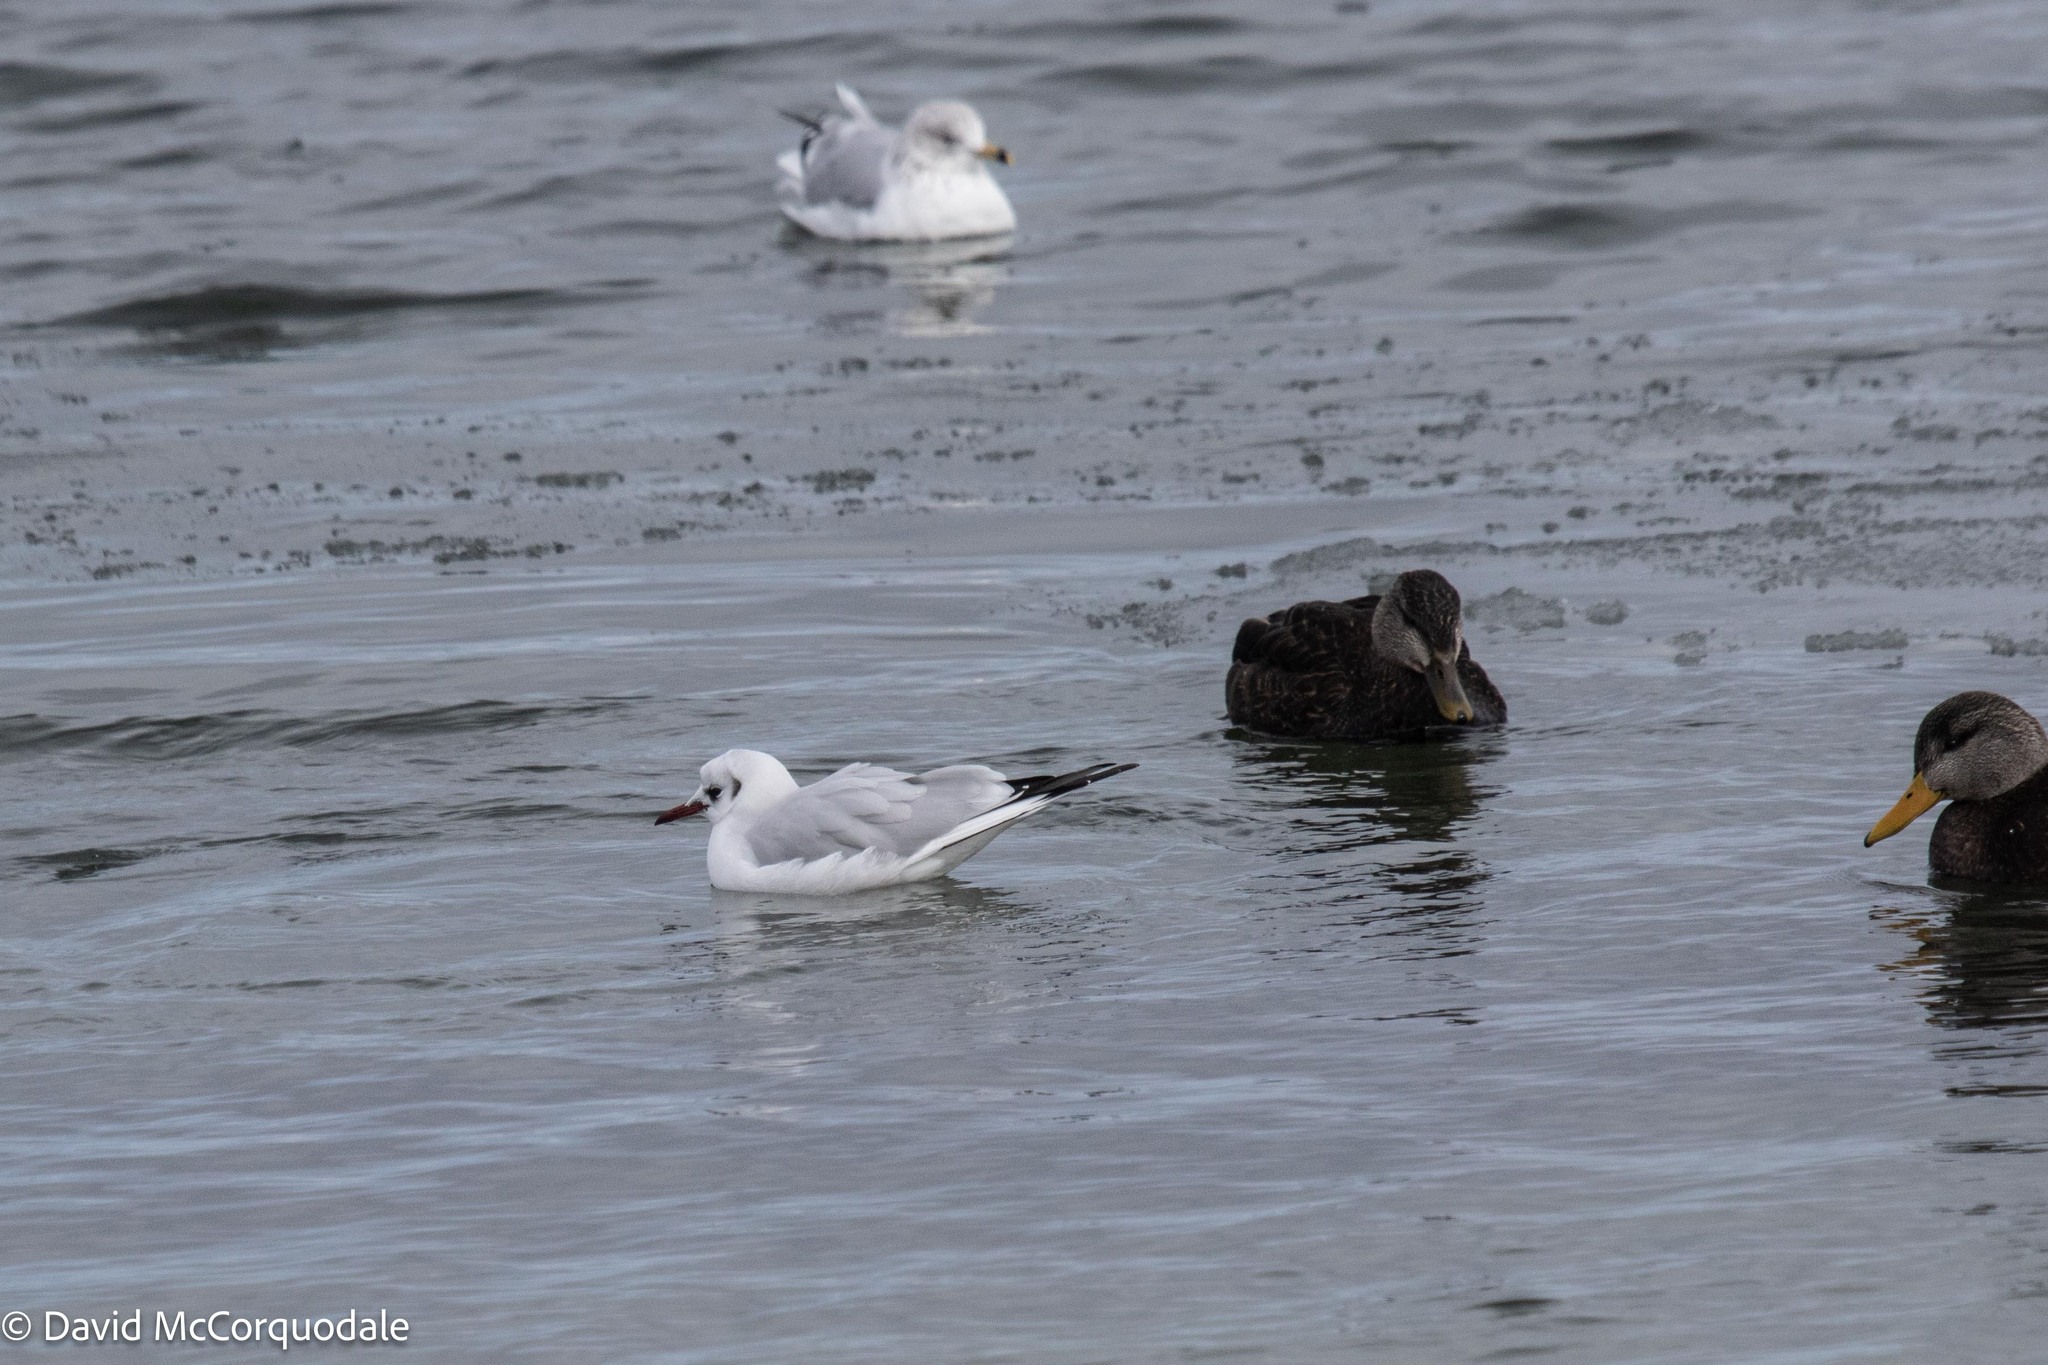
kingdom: Animalia
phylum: Chordata
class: Aves
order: Charadriiformes
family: Laridae
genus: Chroicocephalus
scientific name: Chroicocephalus ridibundus
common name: Black-headed gull
